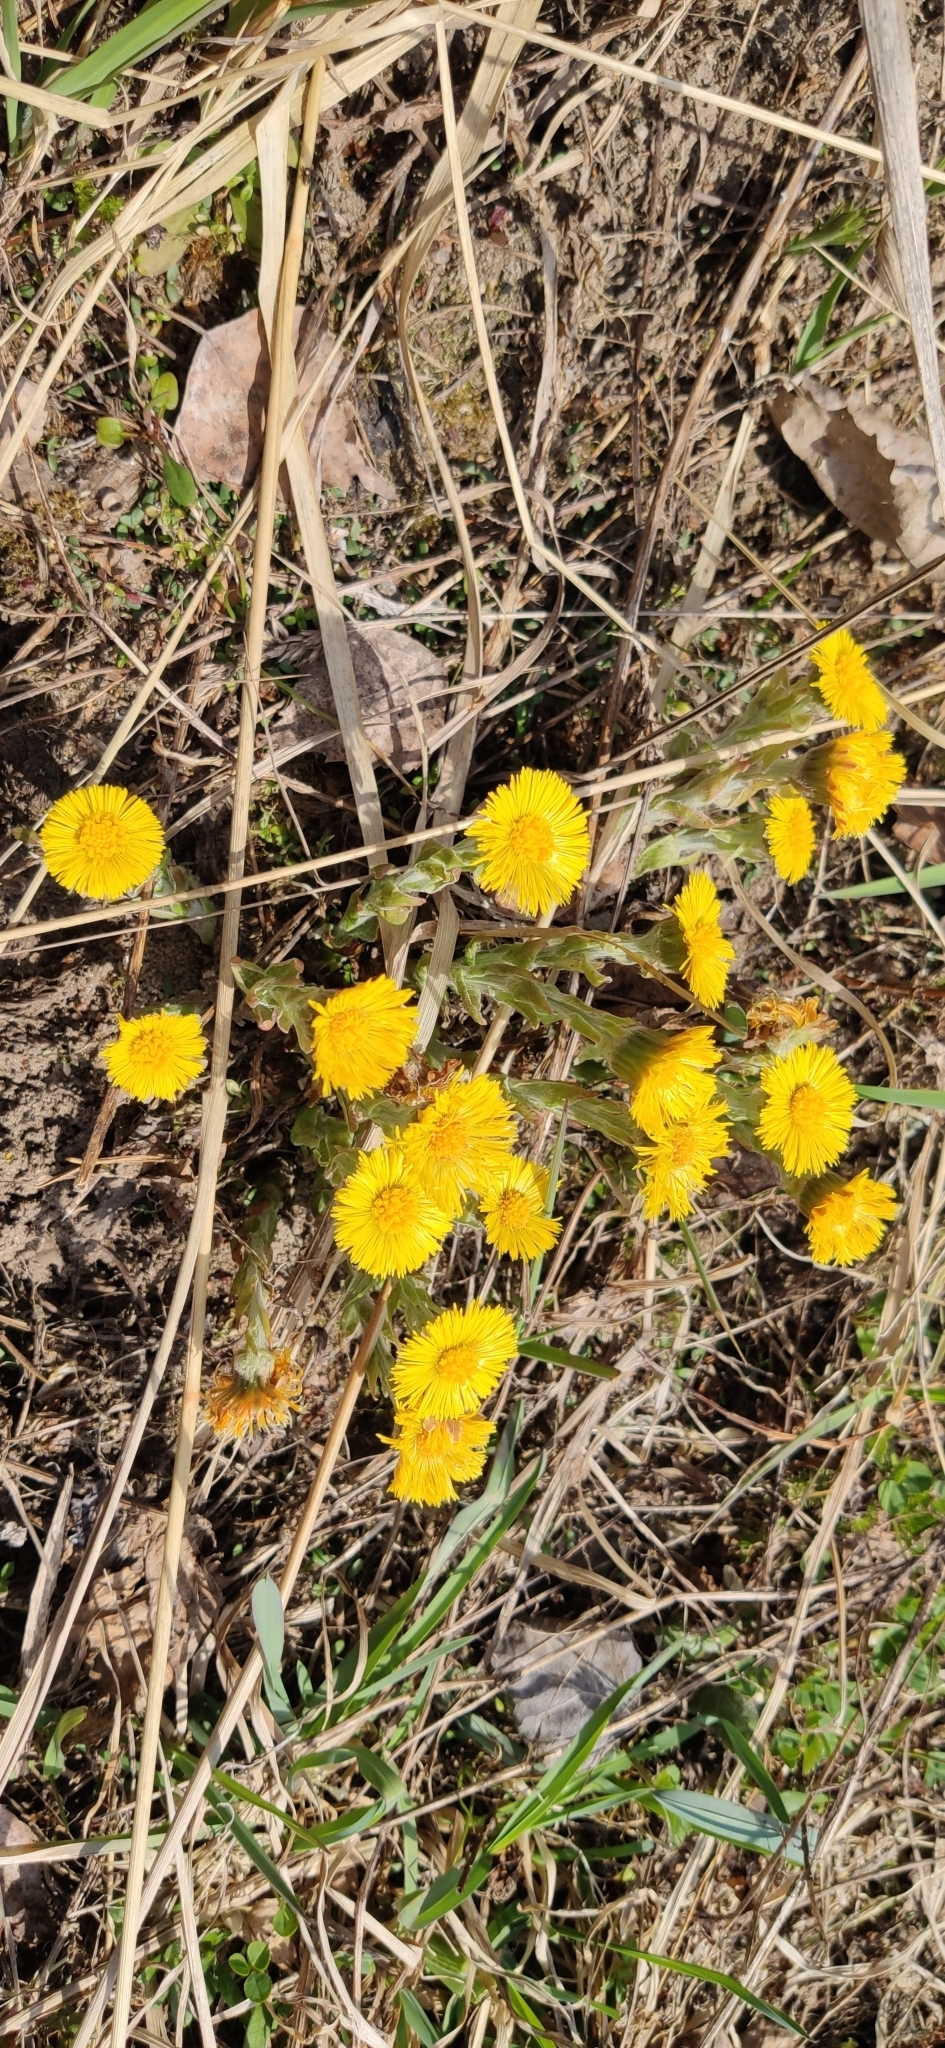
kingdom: Plantae
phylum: Tracheophyta
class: Magnoliopsida
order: Asterales
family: Asteraceae
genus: Tussilago
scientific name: Tussilago farfara
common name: Coltsfoot
